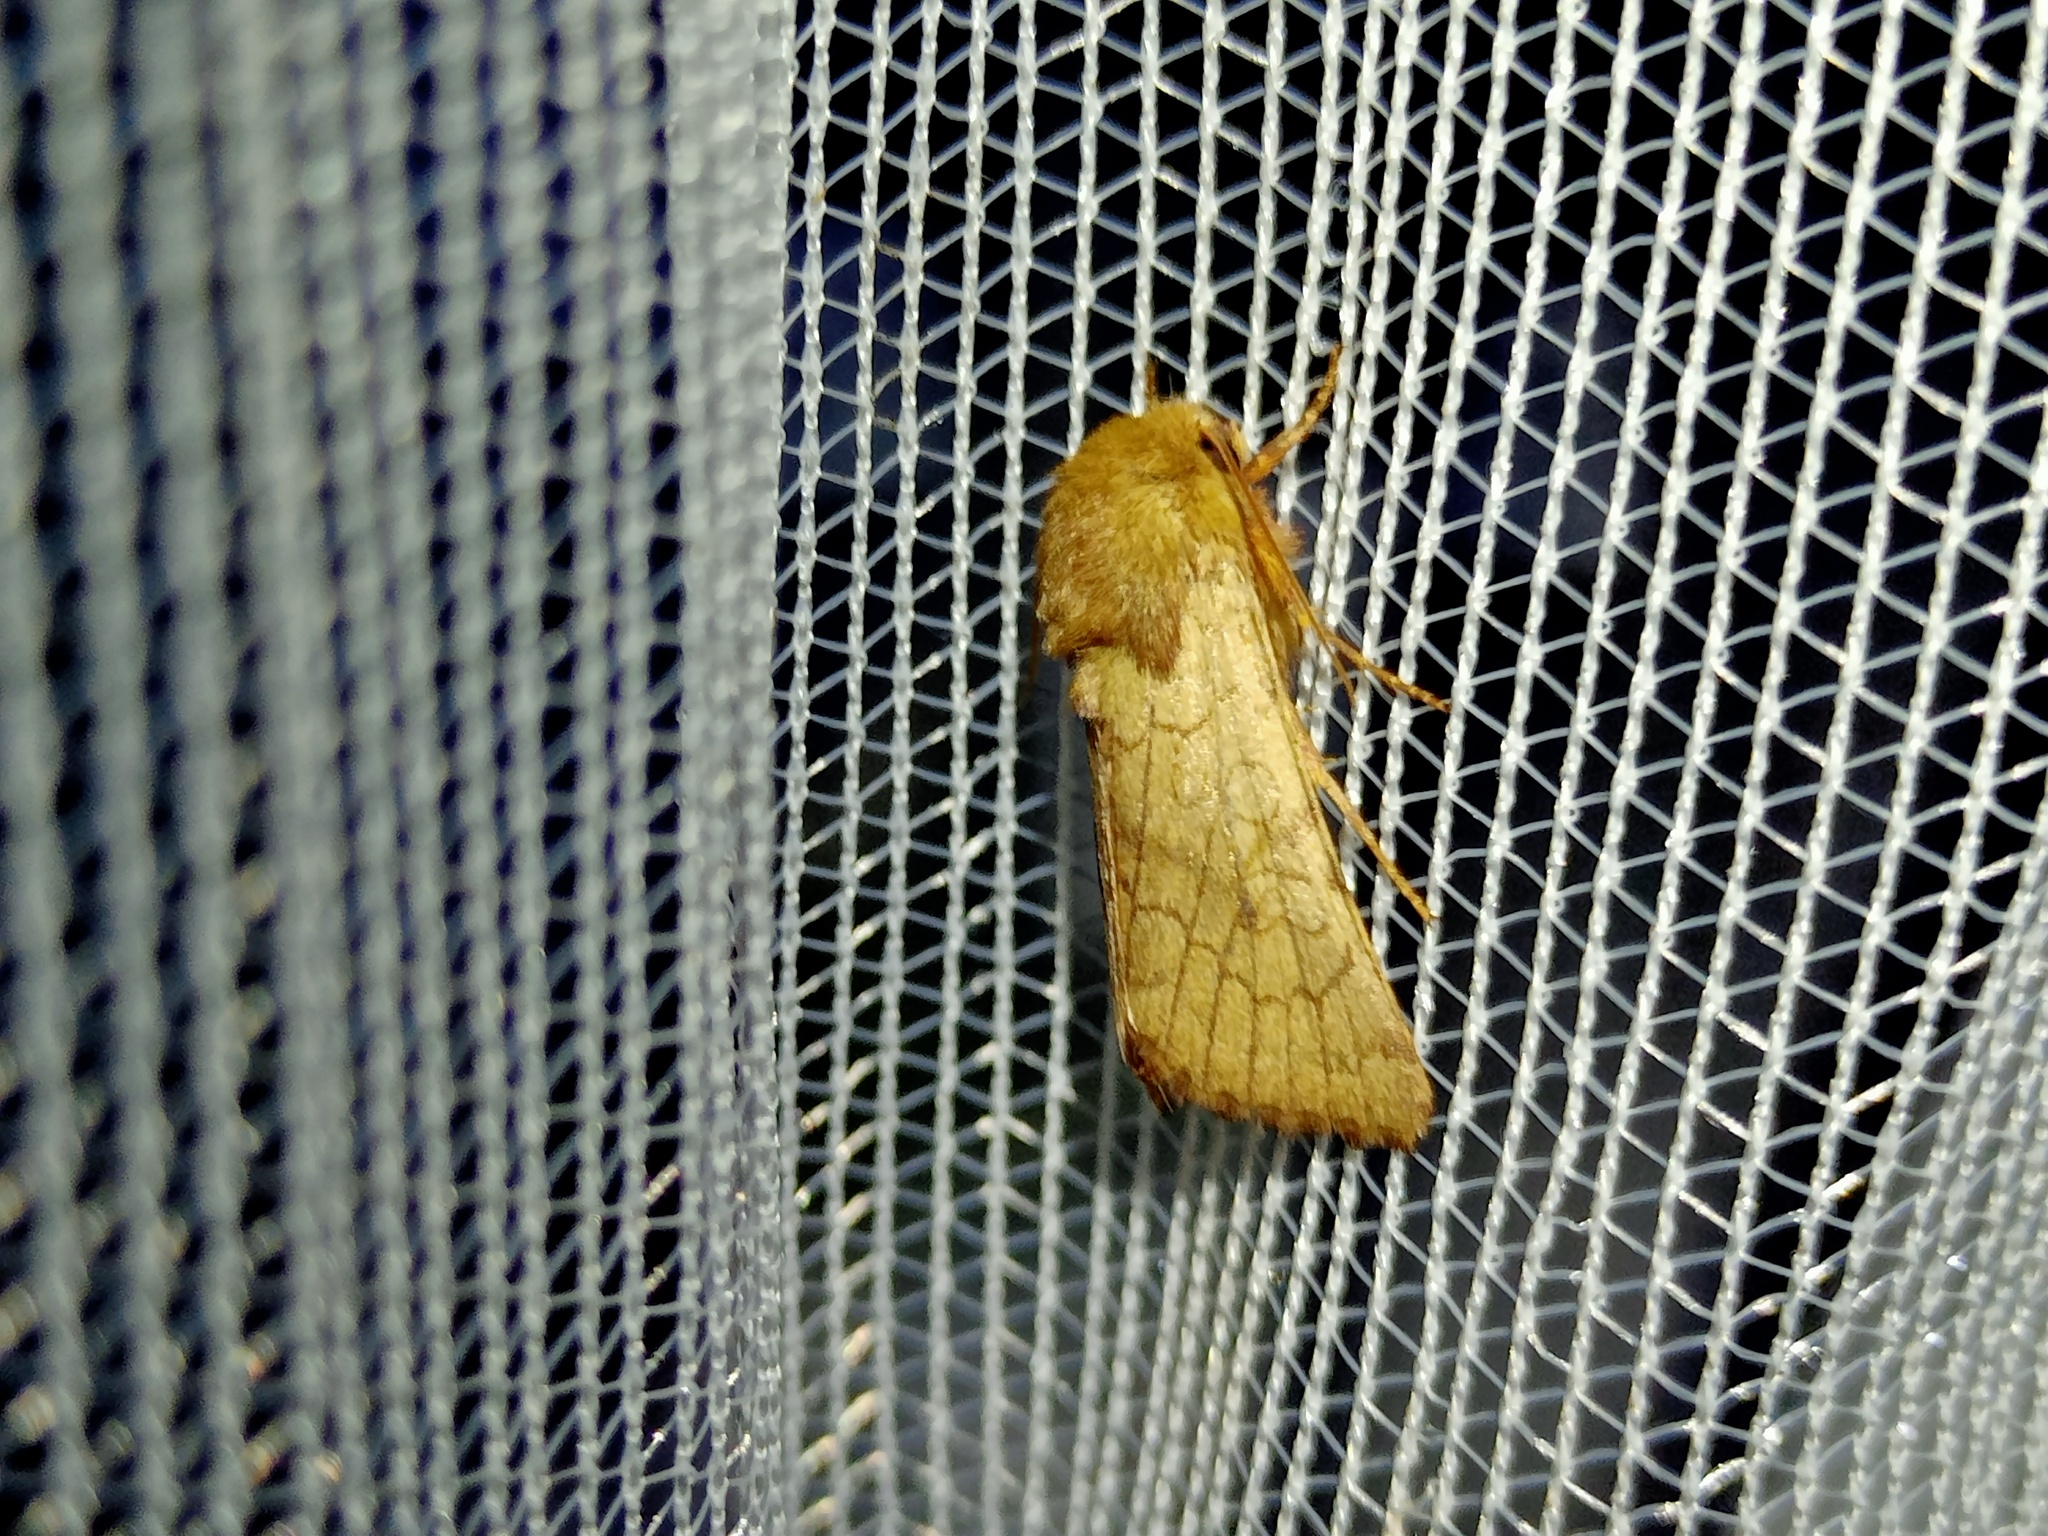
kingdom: Animalia
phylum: Arthropoda
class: Insecta
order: Lepidoptera
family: Noctuidae
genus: Sideridis
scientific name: Sideridis lampra
